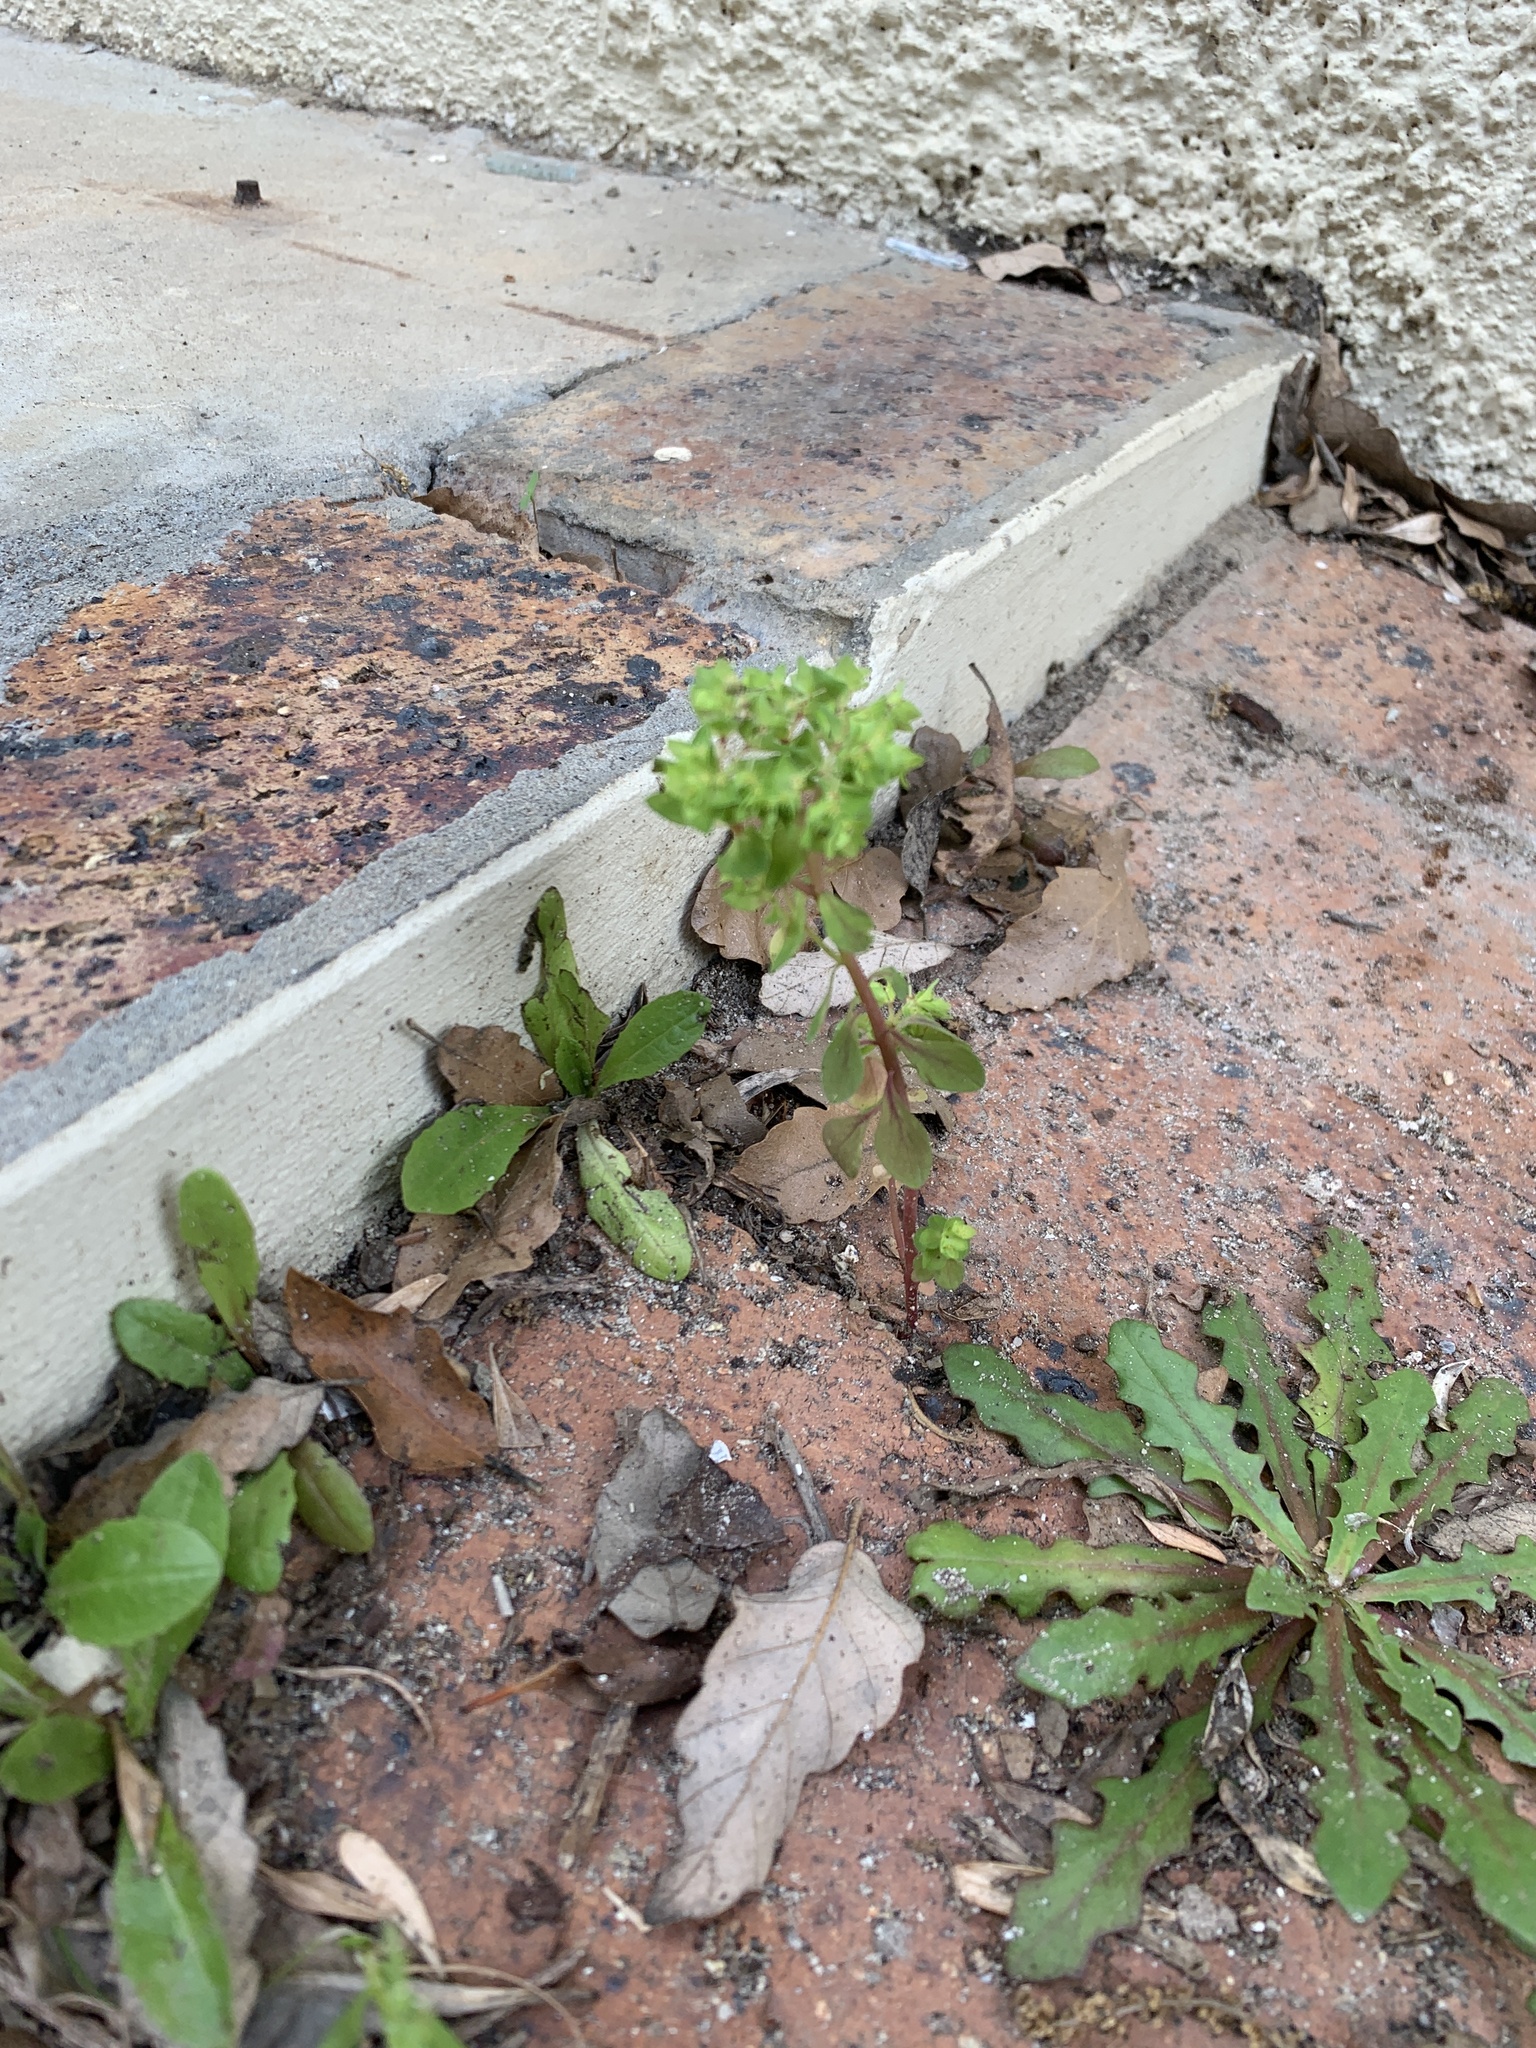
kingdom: Plantae
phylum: Tracheophyta
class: Magnoliopsida
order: Malpighiales
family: Euphorbiaceae
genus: Euphorbia
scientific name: Euphorbia peplus
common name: Petty spurge
